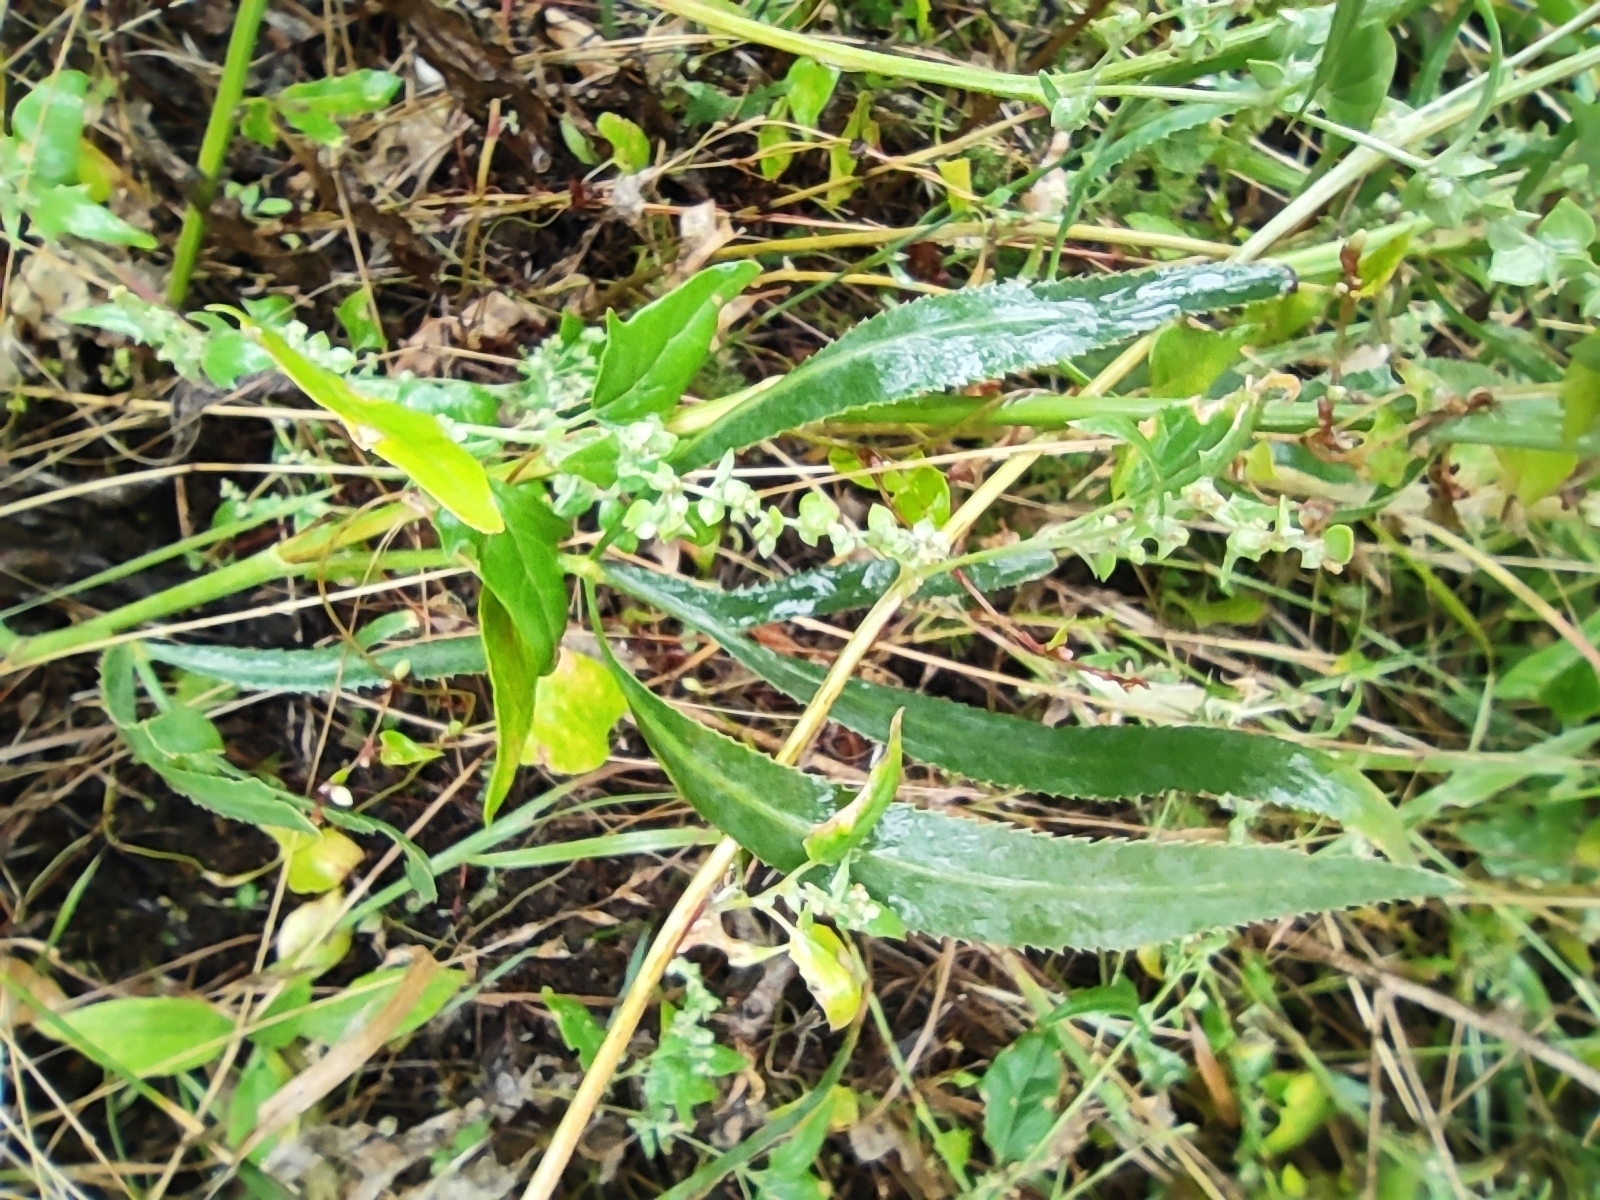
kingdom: Plantae
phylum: Tracheophyta
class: Magnoliopsida
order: Apiales
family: Apiaceae
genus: Falcaria
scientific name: Falcaria vulgaris
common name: Longleaf
